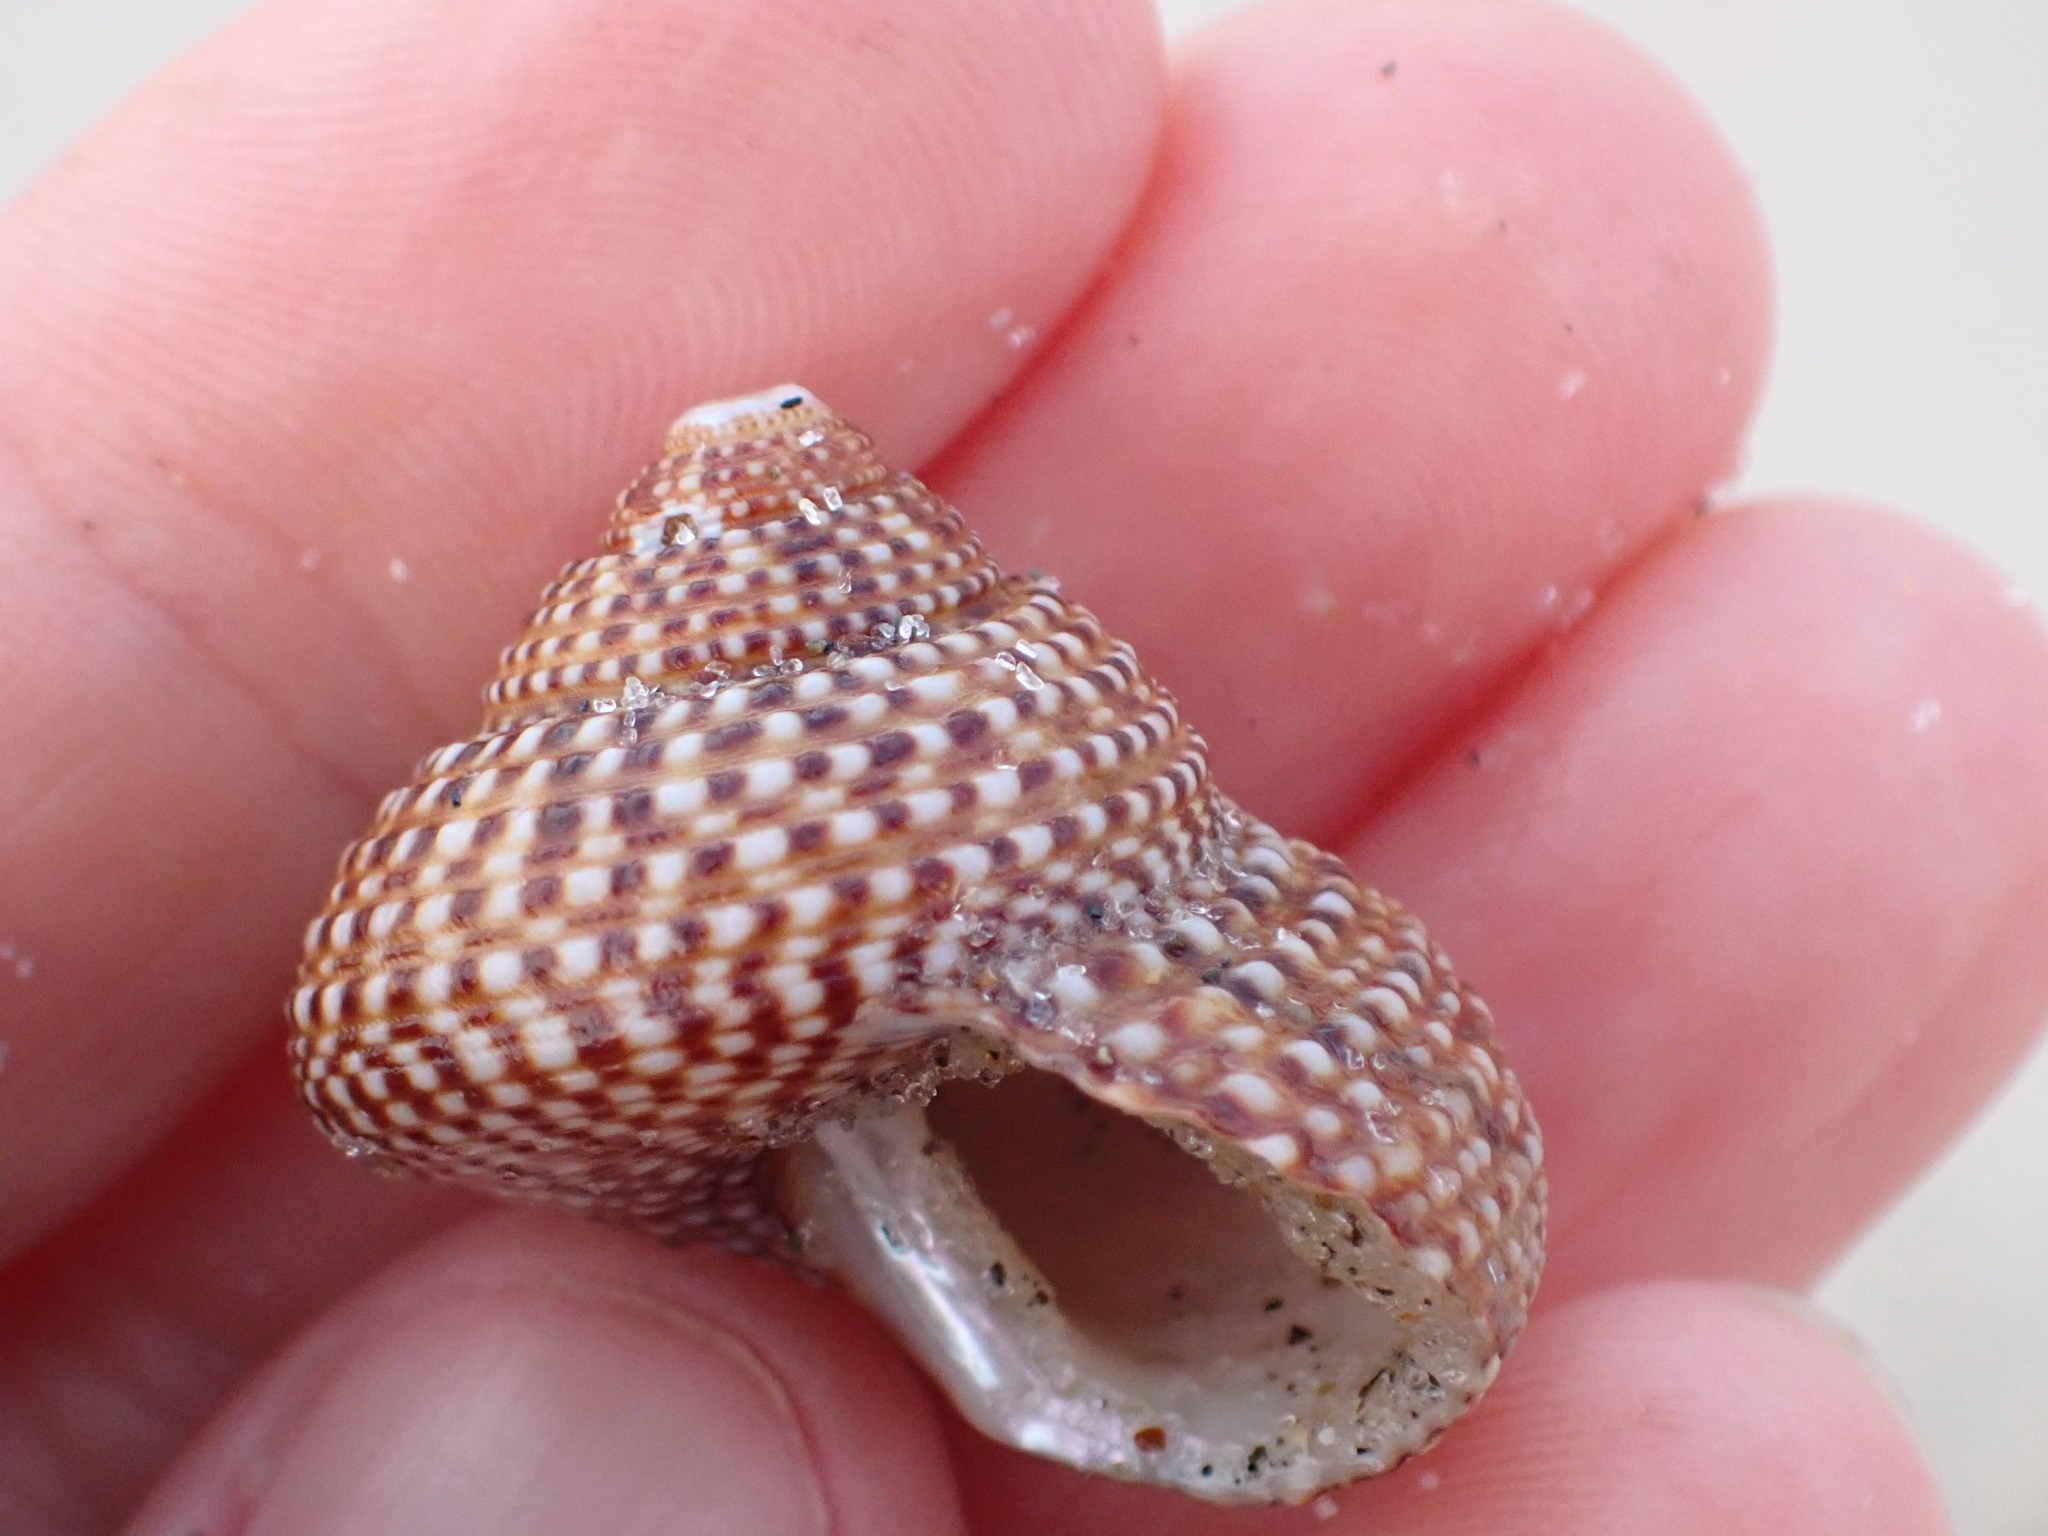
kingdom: Animalia
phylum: Mollusca
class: Gastropoda
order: Trochida
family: Calliostomatidae
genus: Maurea
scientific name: Maurea punctulata
